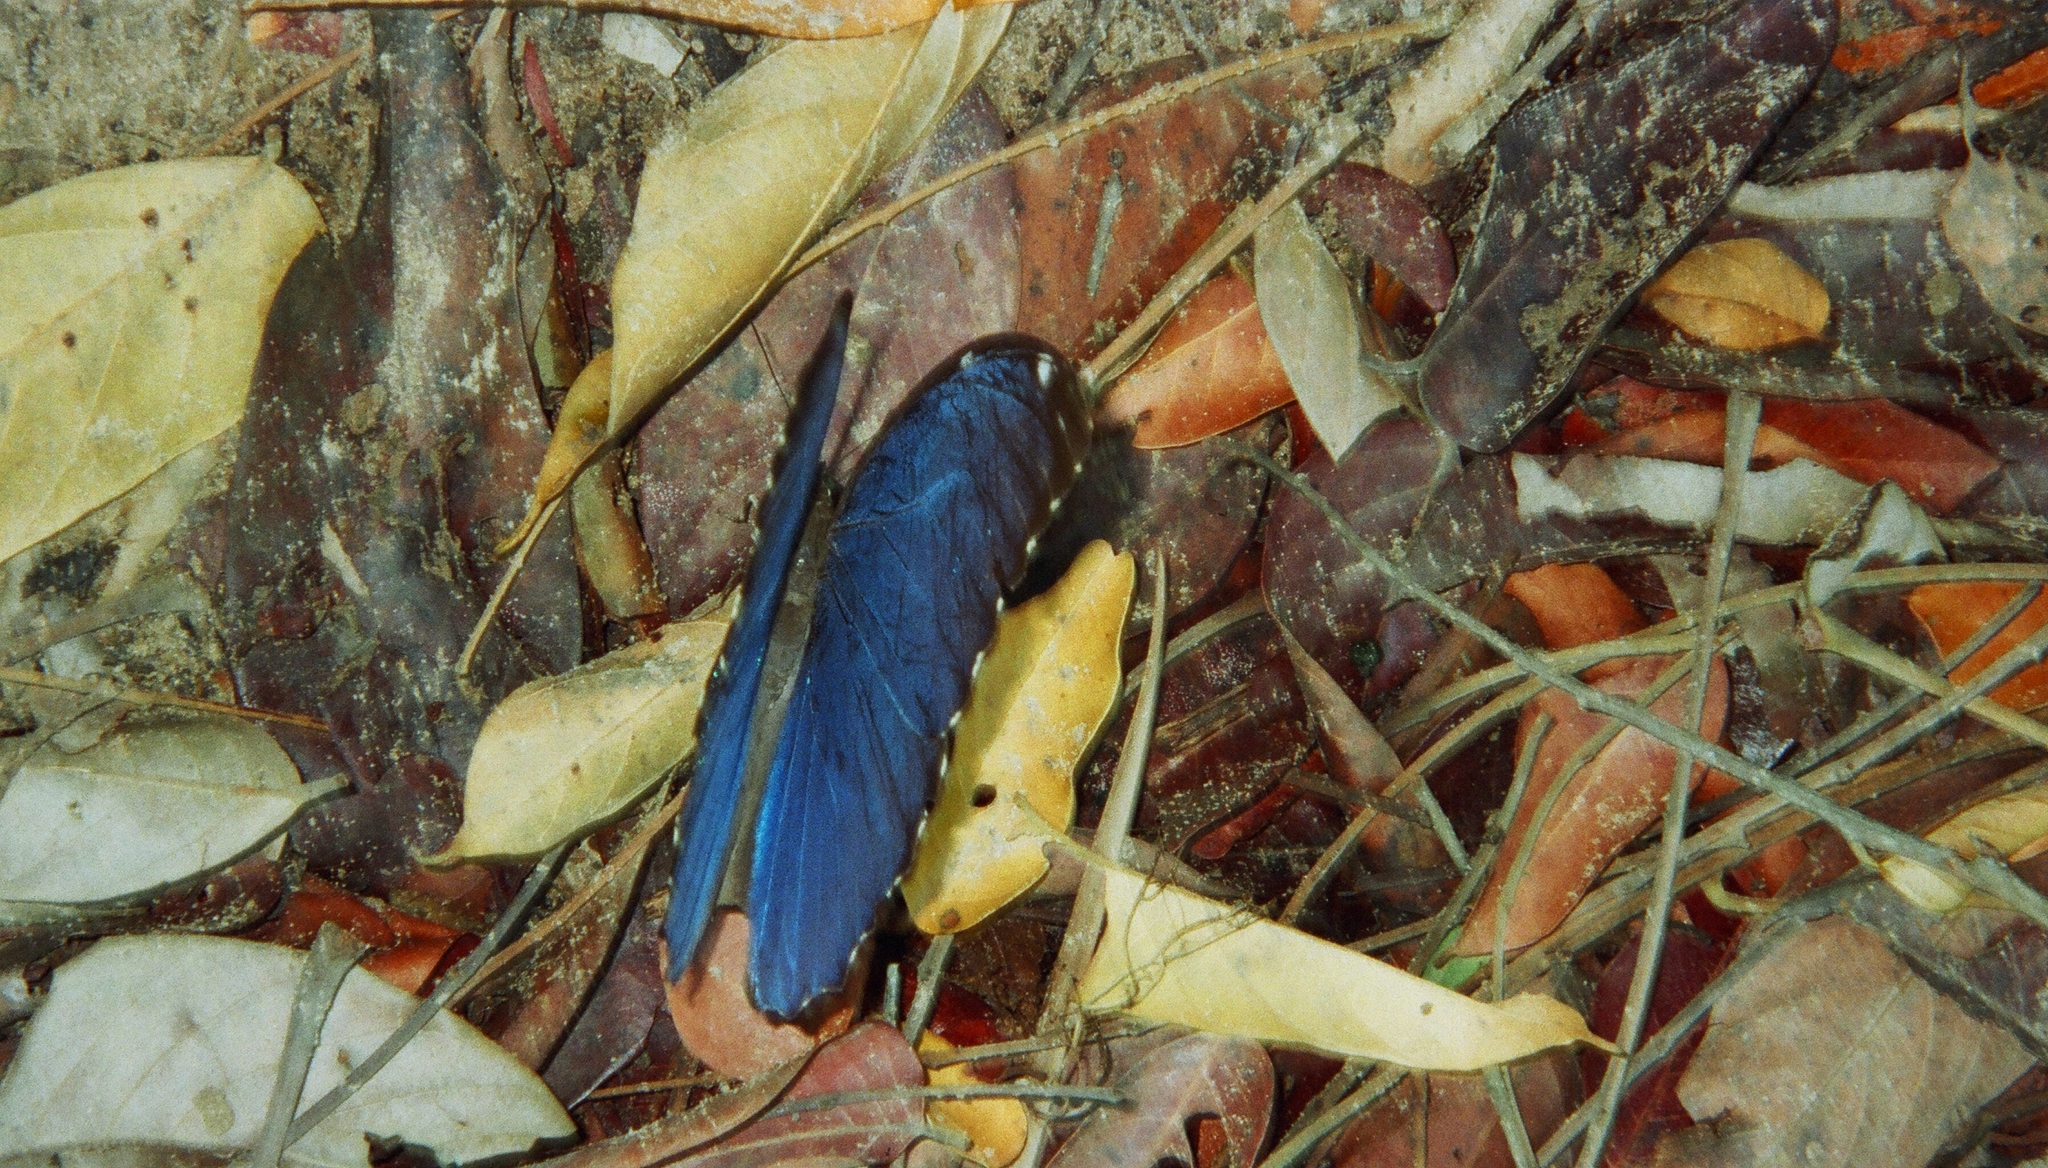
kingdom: Animalia
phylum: Arthropoda
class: Insecta
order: Lepidoptera
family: Nymphalidae
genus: Morpho
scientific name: Morpho menelaus
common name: Menelaus morpho
